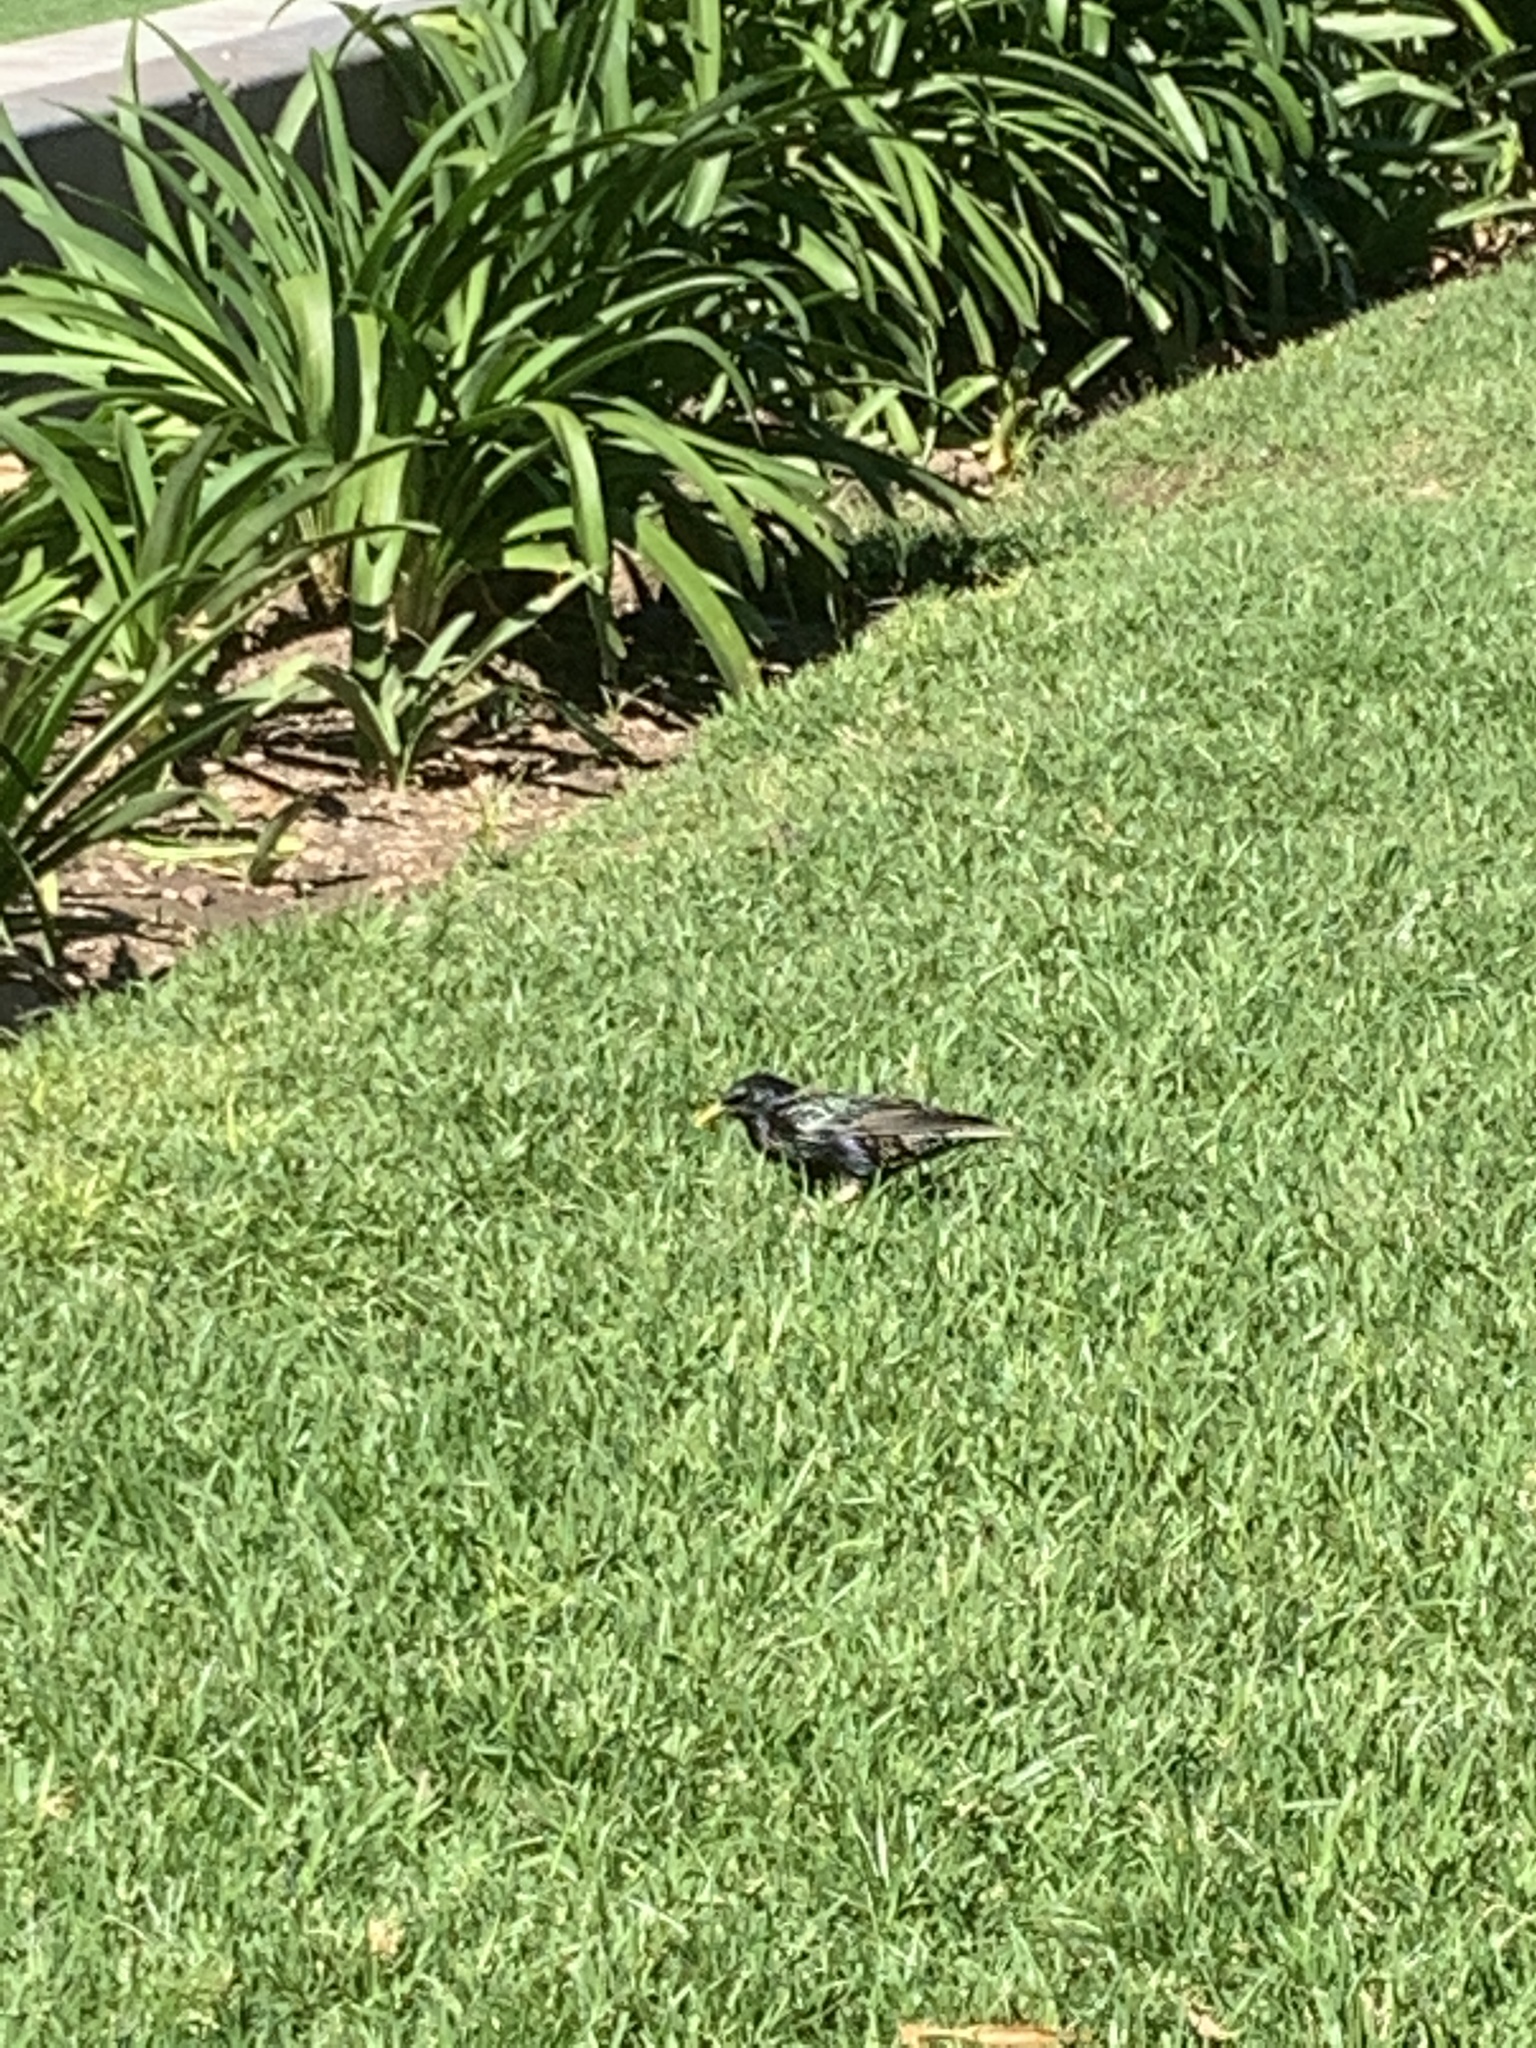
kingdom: Animalia
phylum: Chordata
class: Aves
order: Passeriformes
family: Sturnidae
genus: Sturnus
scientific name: Sturnus vulgaris
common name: Common starling
